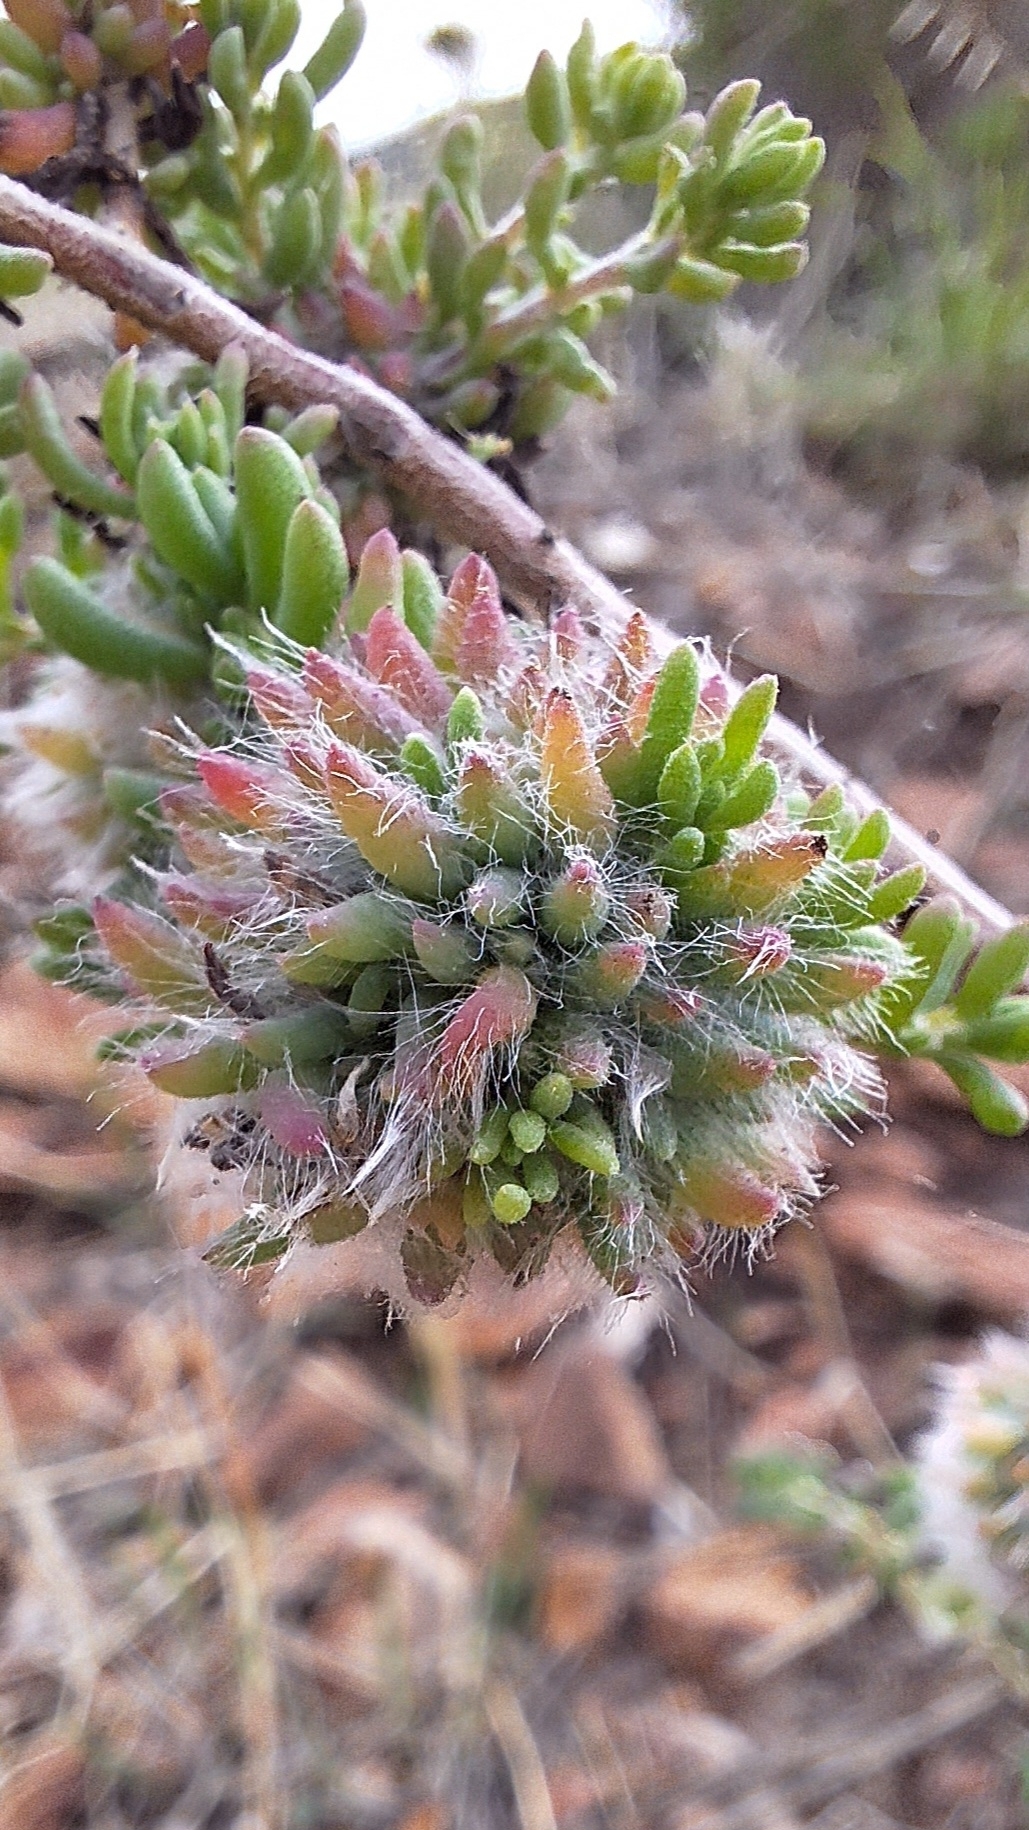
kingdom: Animalia
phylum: Arthropoda
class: Insecta
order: Diptera
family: Cecidomyiidae
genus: Dactylasioptera
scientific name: Dactylasioptera milnae
